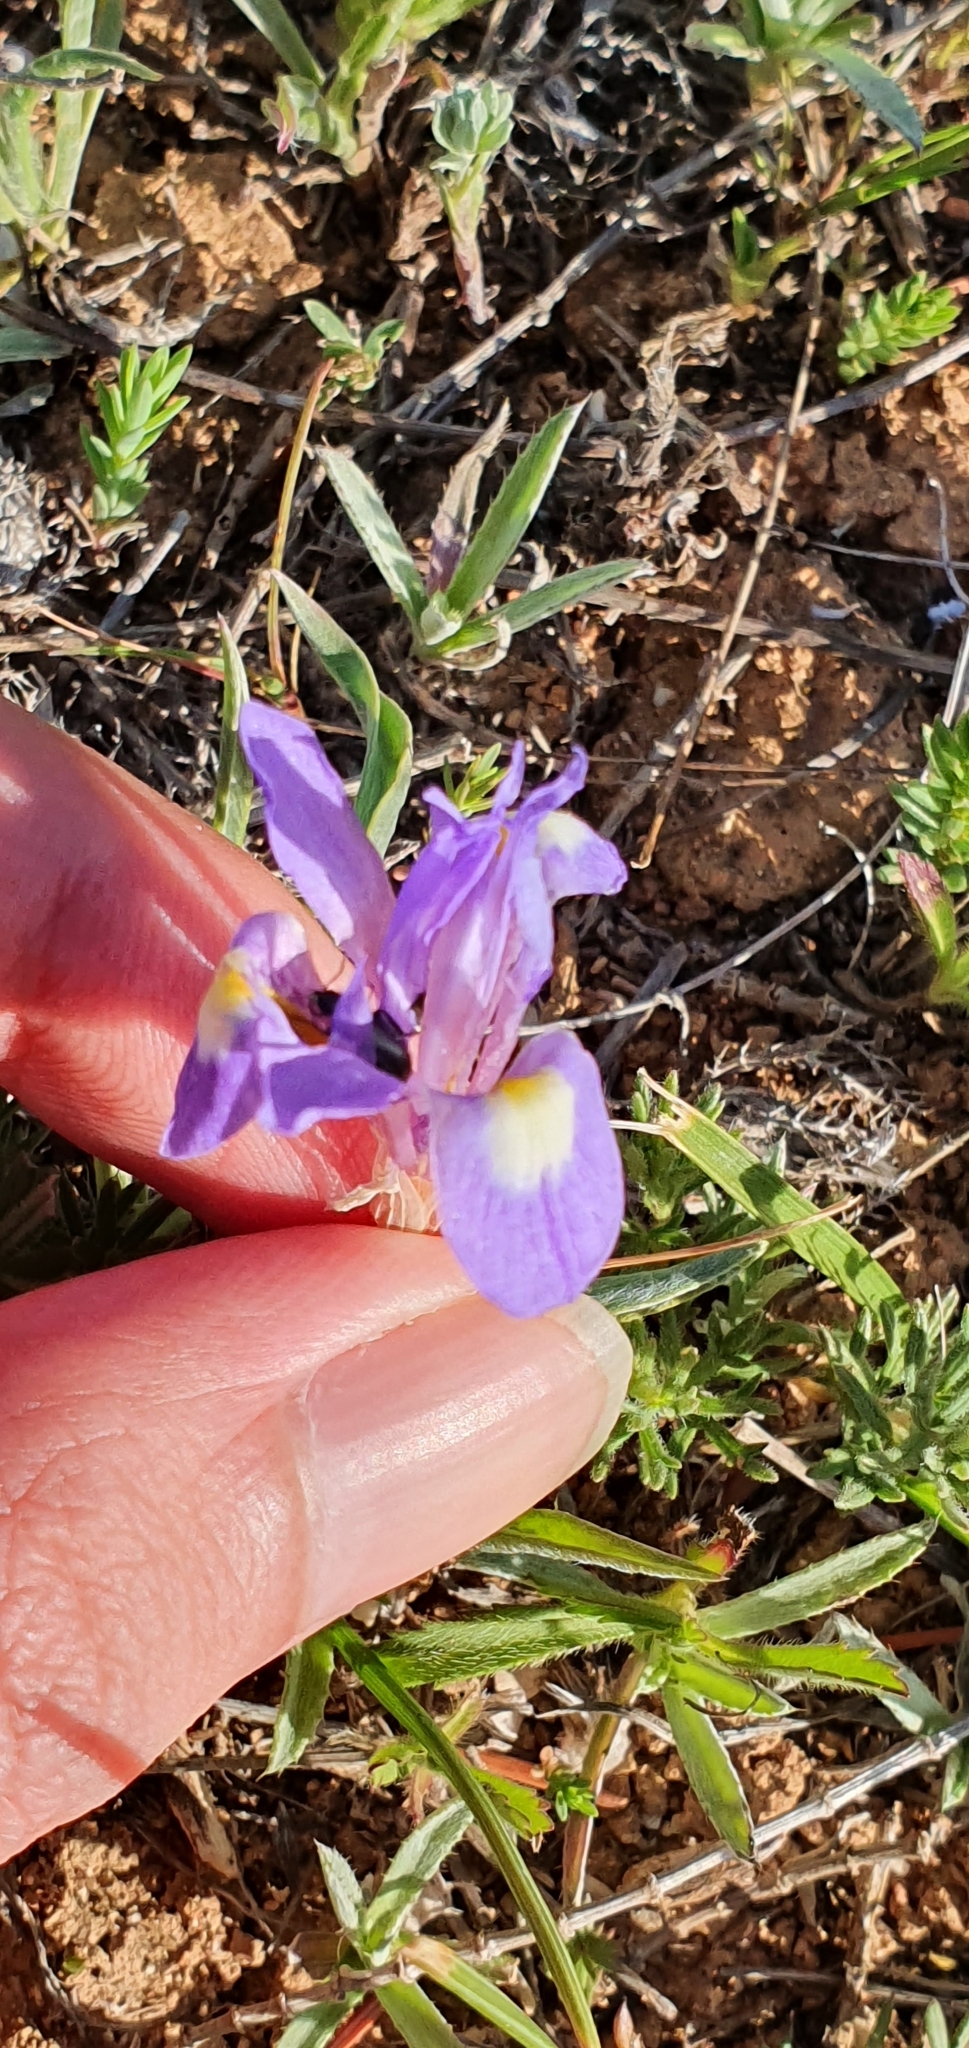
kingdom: Plantae
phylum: Tracheophyta
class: Liliopsida
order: Asparagales
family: Iridaceae
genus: Moraea
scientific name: Moraea sisyrinchium
